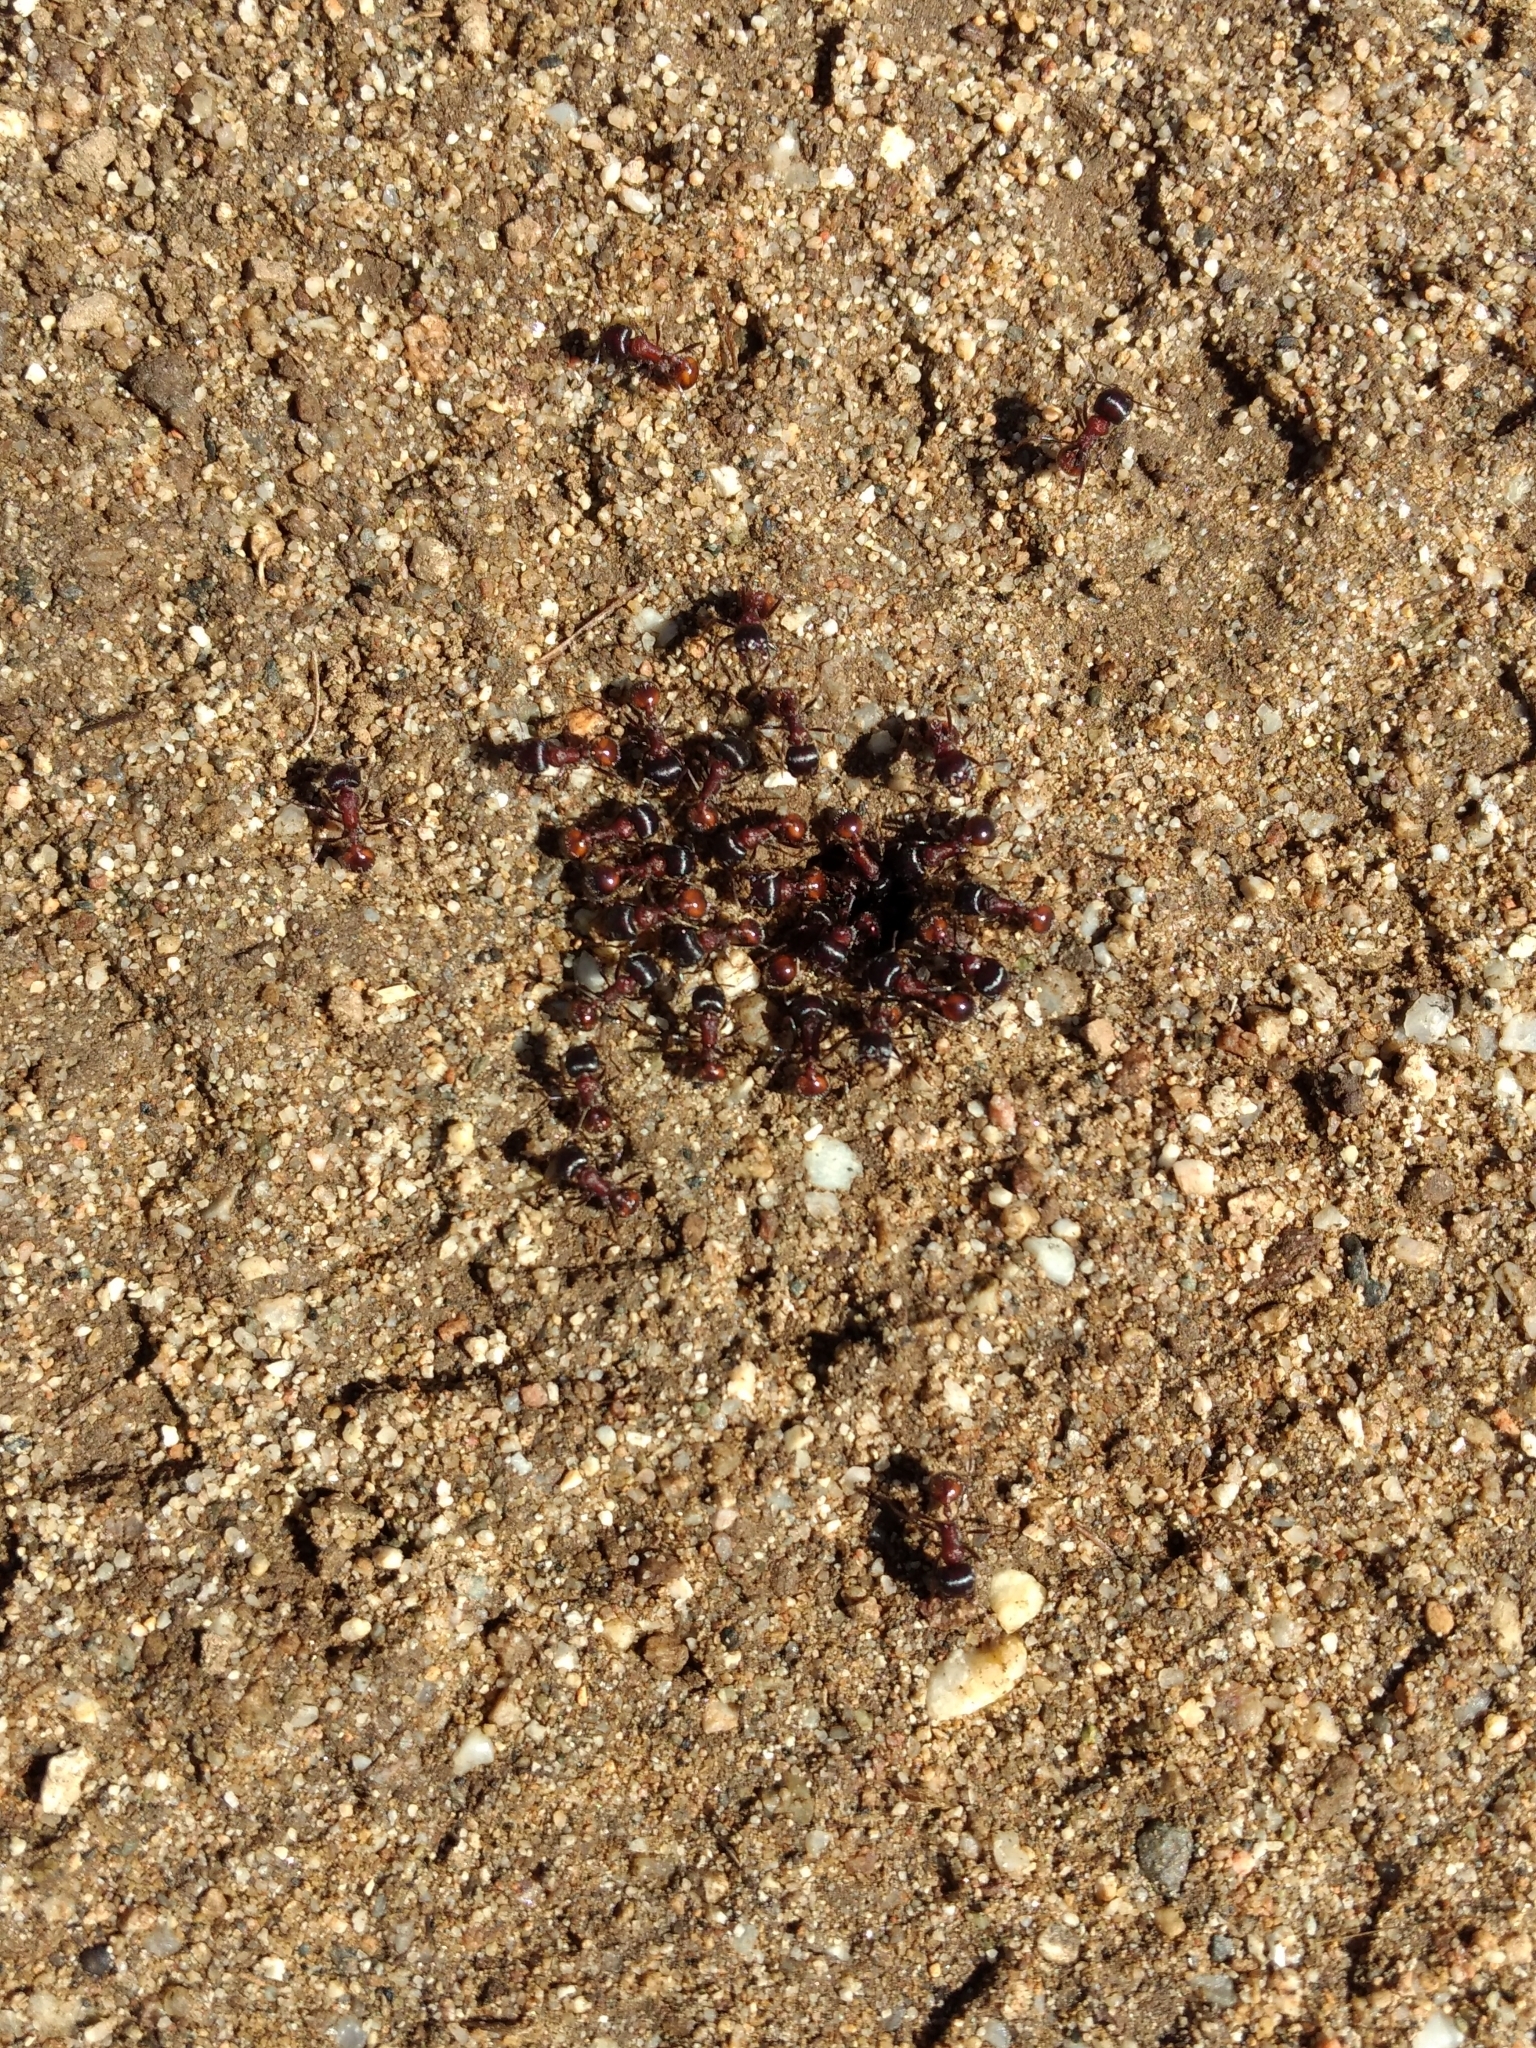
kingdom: Animalia
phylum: Arthropoda
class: Insecta
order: Hymenoptera
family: Formicidae
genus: Pogonomyrmex
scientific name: Pogonomyrmex rugosus
